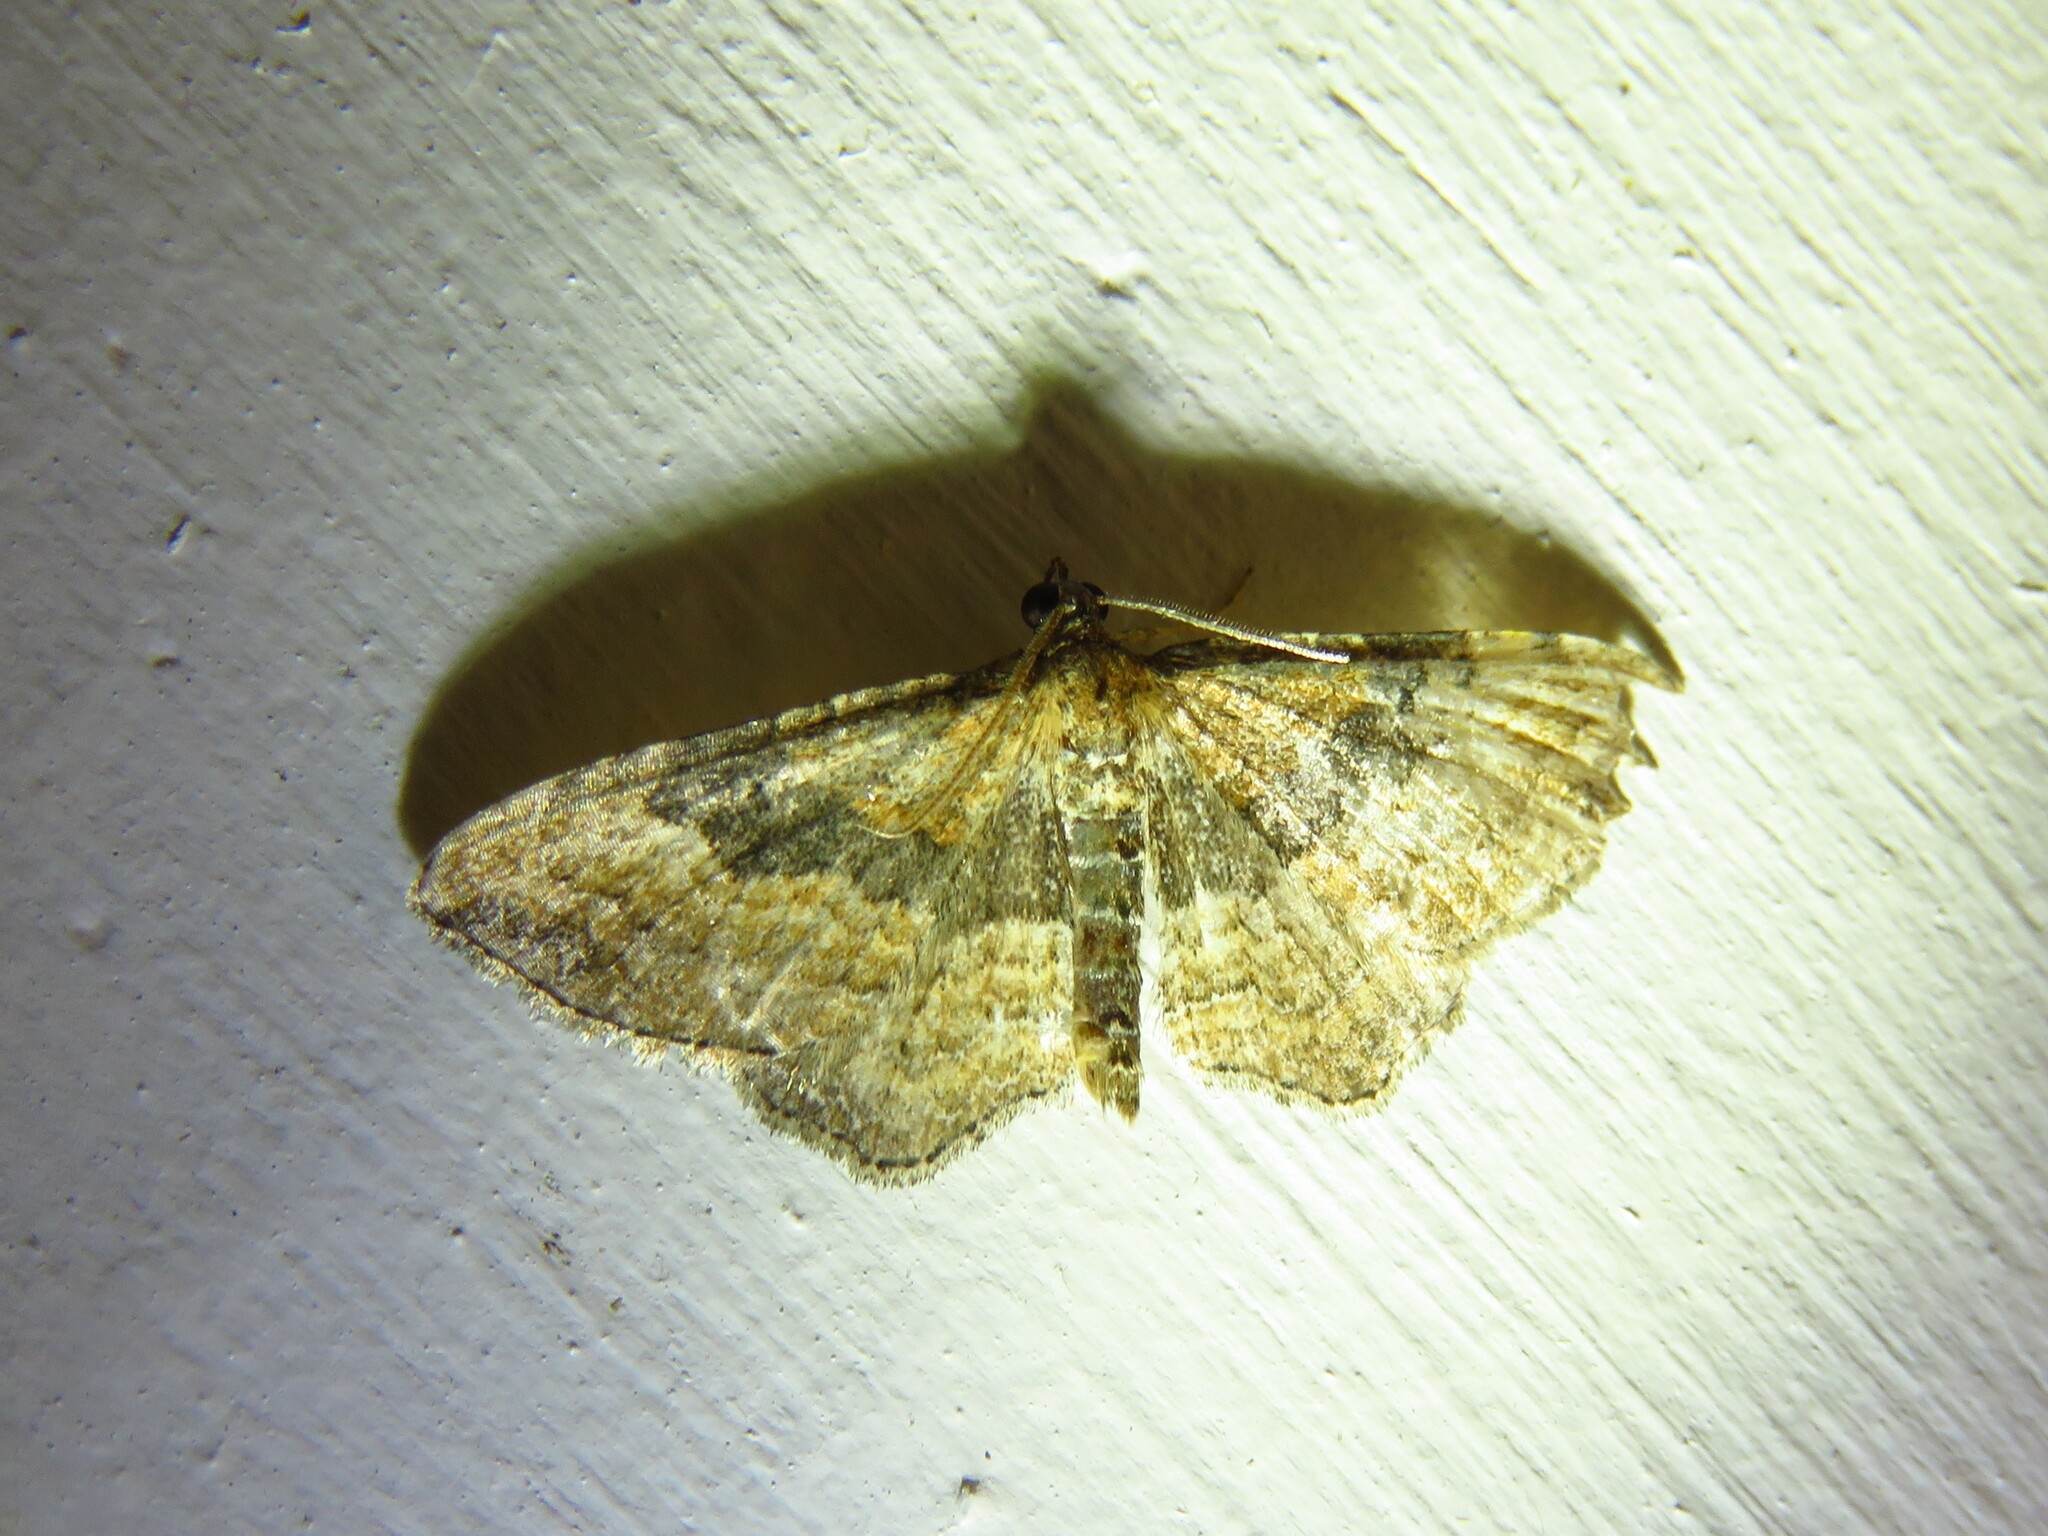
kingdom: Animalia
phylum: Arthropoda
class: Insecta
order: Lepidoptera
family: Geometridae
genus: Orthonama
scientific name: Orthonama obstipata
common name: The gem
